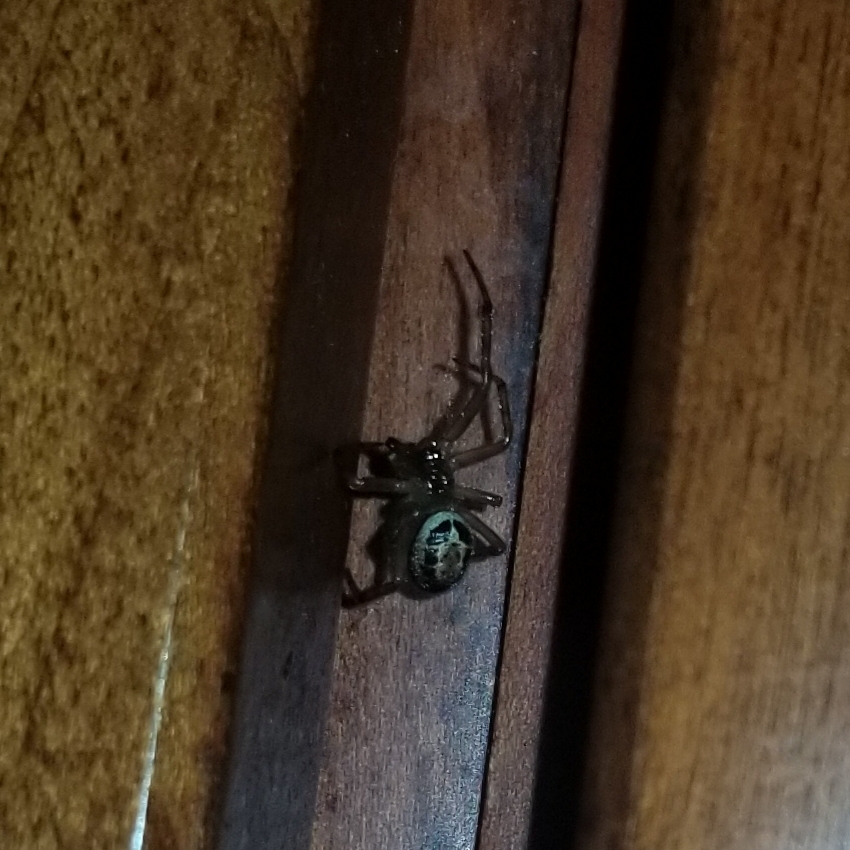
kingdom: Animalia
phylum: Arthropoda
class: Arachnida
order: Araneae
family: Theridiidae
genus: Steatoda
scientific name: Steatoda nobilis
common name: Cobweb weaver
